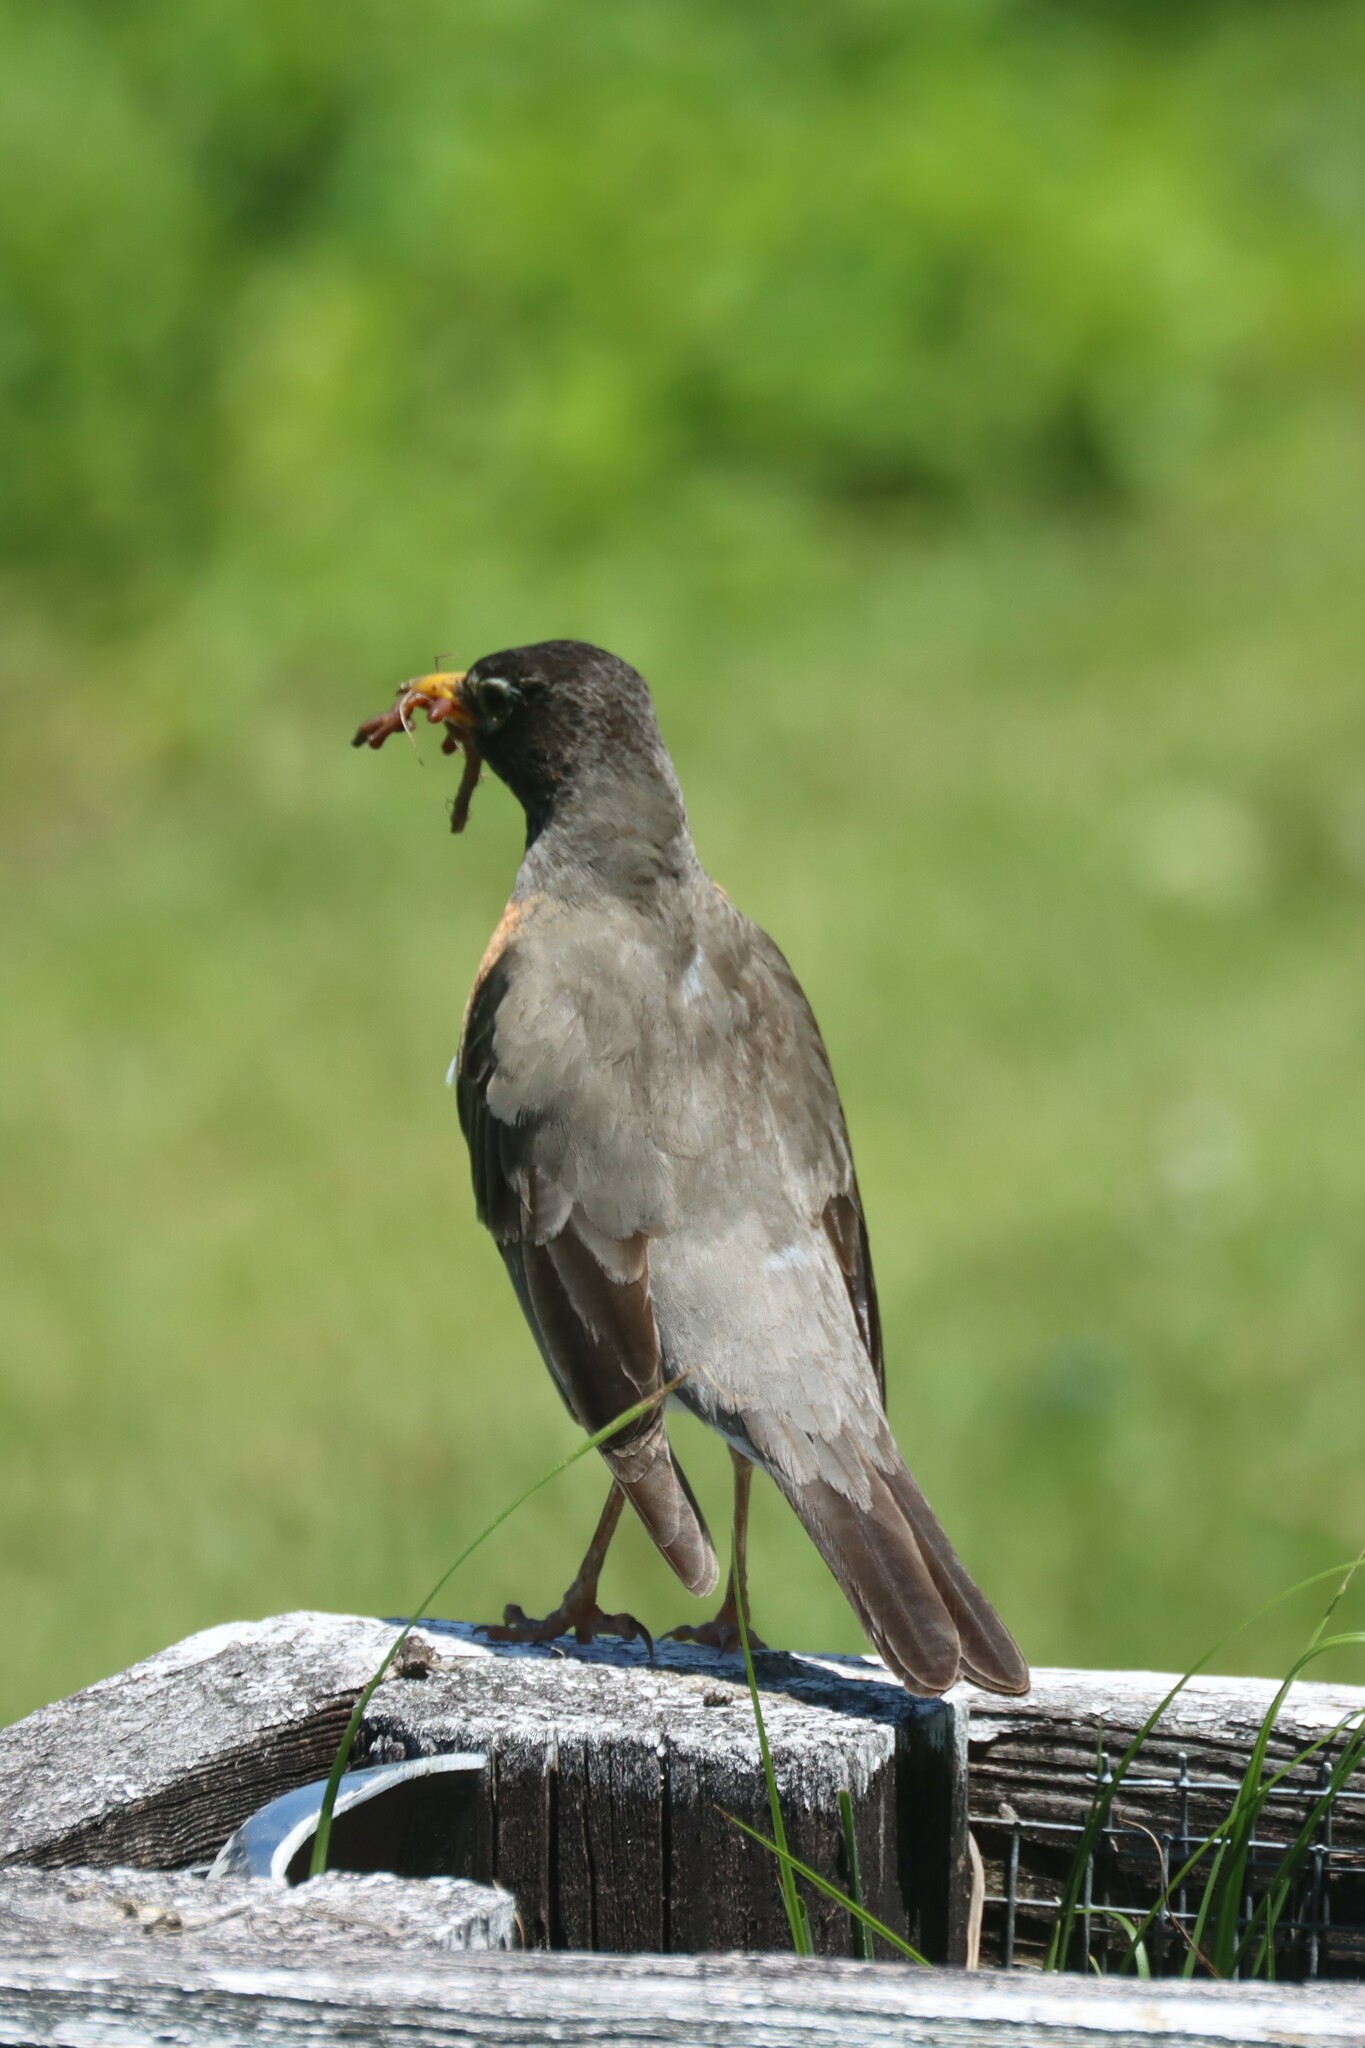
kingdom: Animalia
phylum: Chordata
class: Aves
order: Passeriformes
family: Turdidae
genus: Turdus
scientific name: Turdus migratorius
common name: American robin
